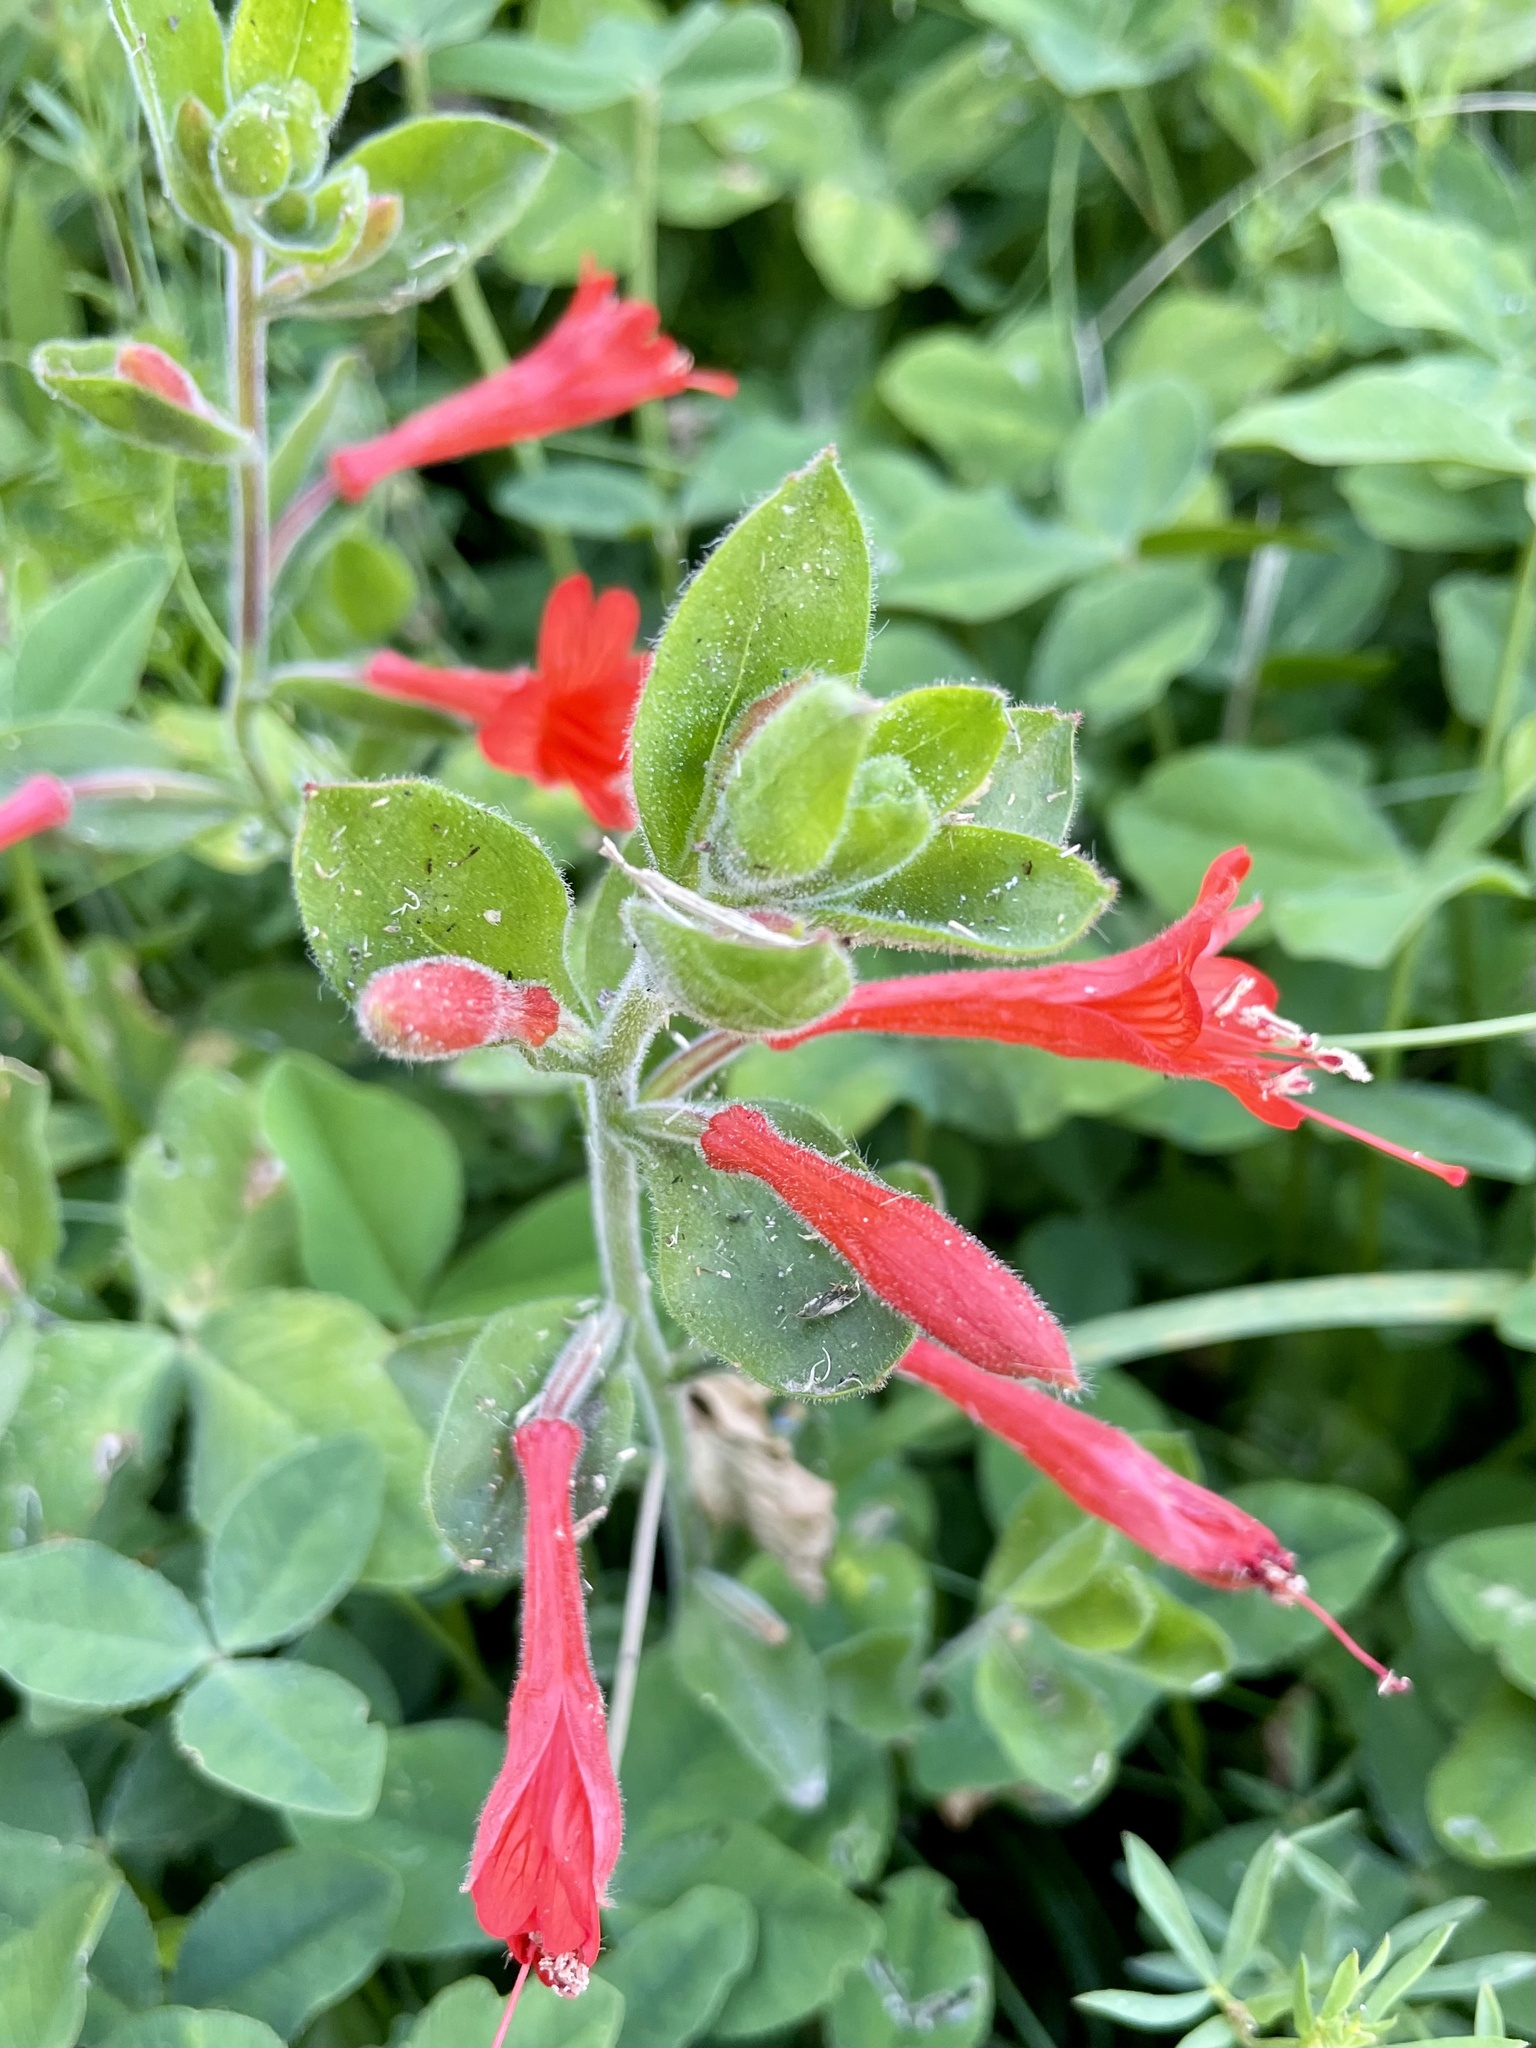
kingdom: Plantae
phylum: Tracheophyta
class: Magnoliopsida
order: Myrtales
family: Onagraceae
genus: Epilobium
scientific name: Epilobium canum
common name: California-fuchsia
